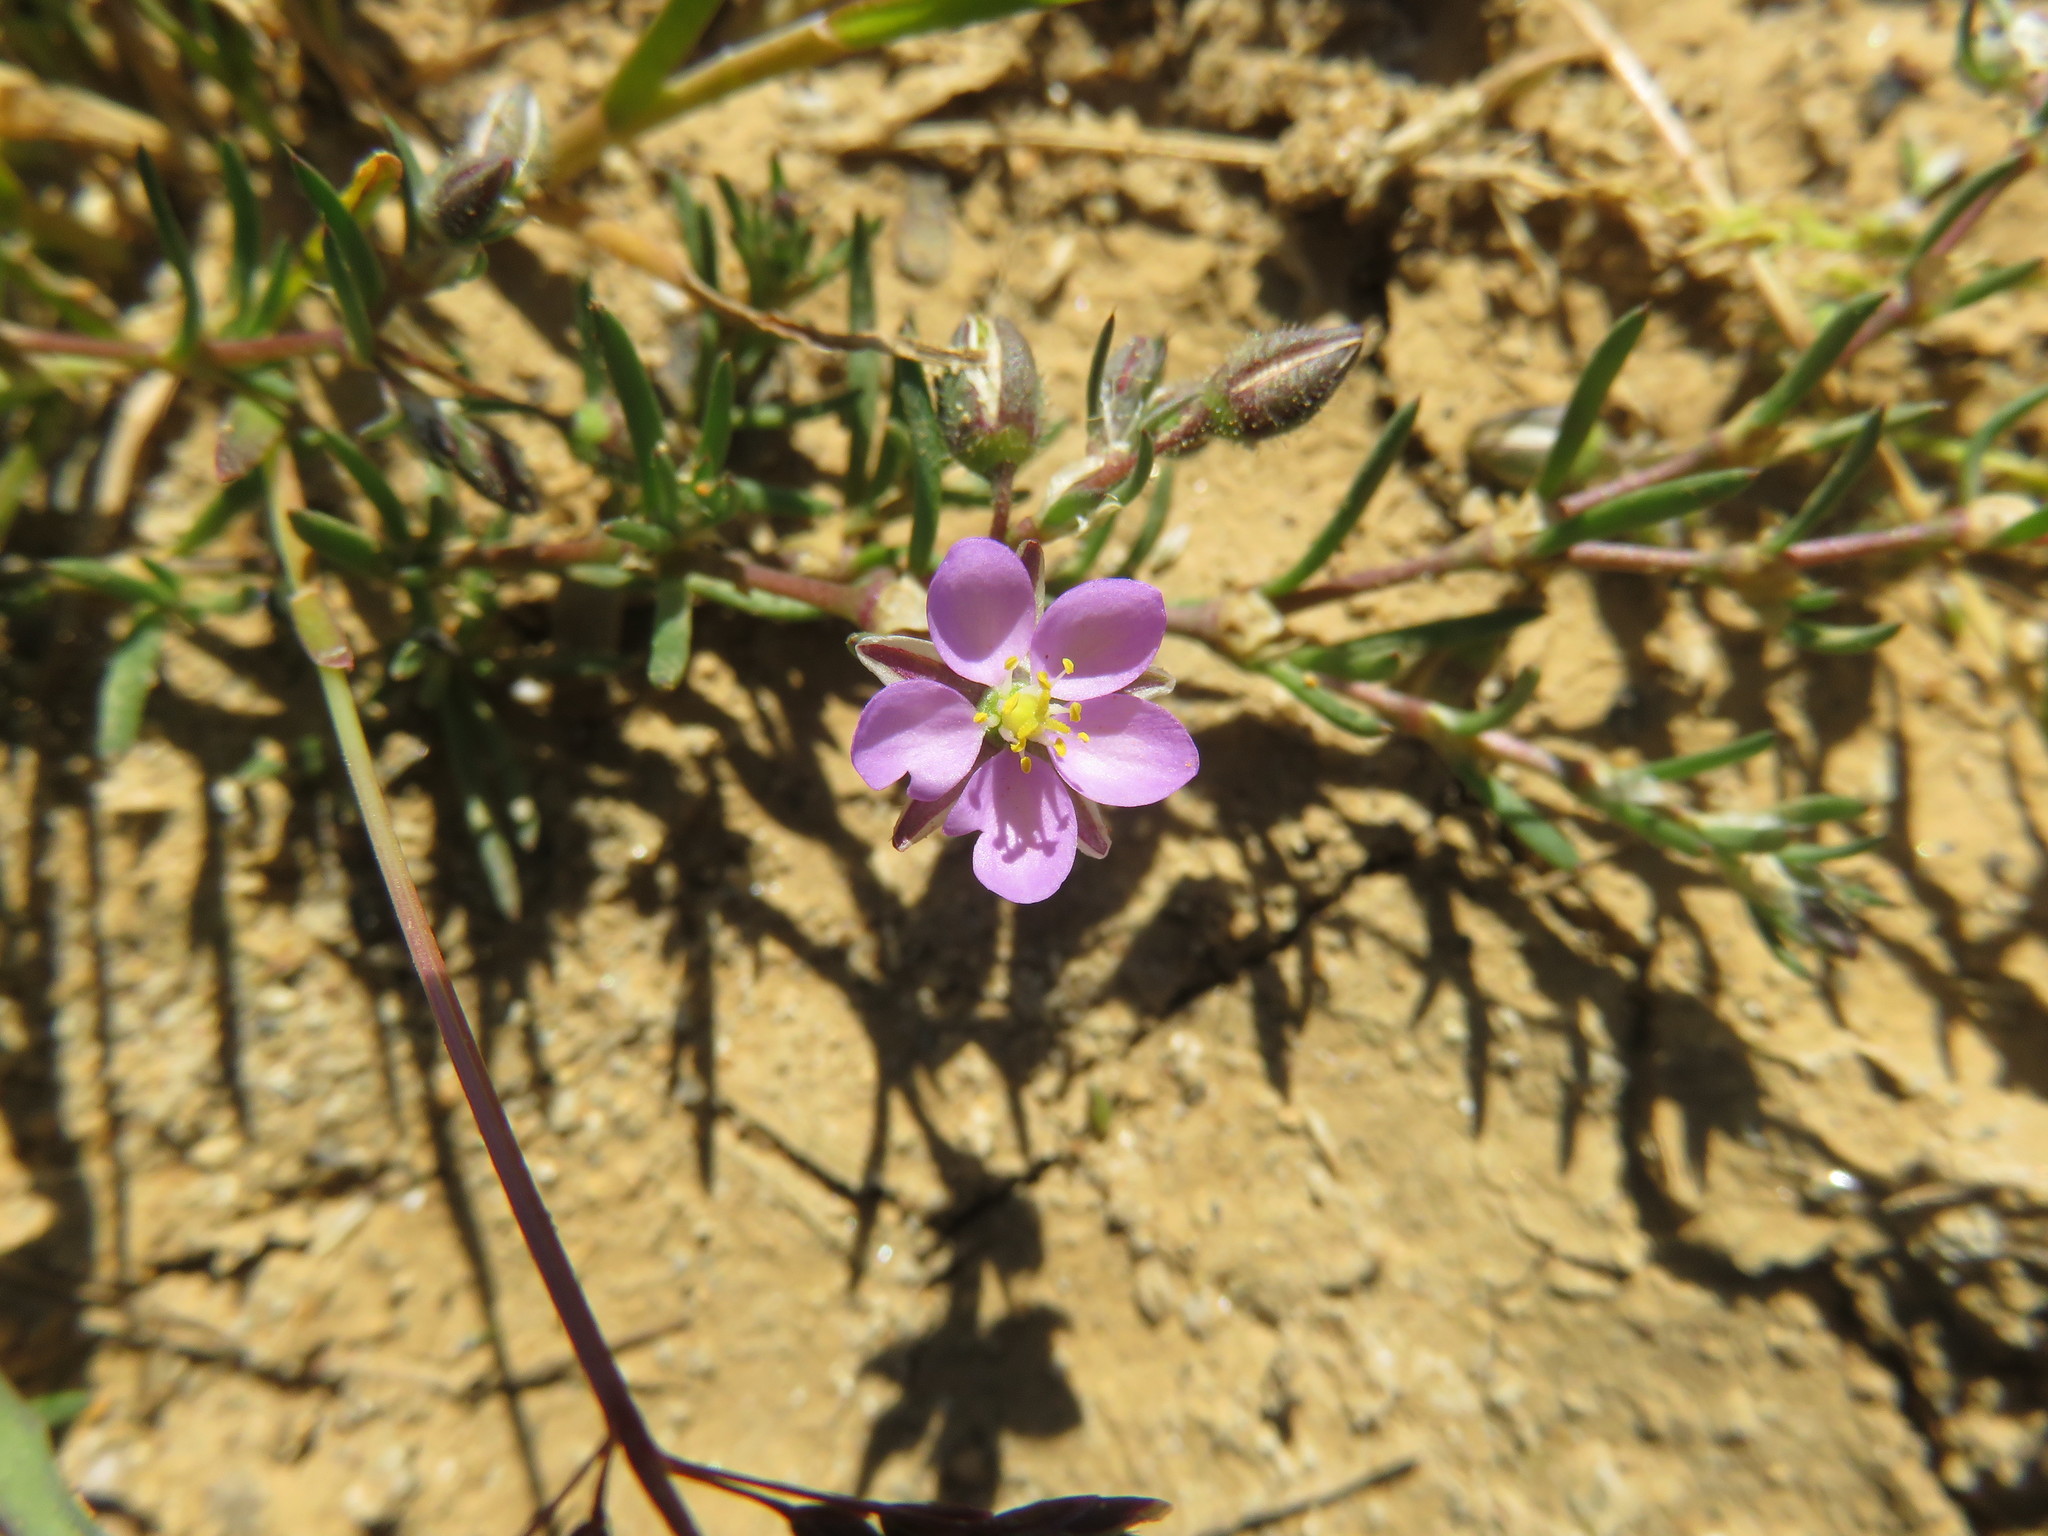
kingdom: Plantae
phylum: Tracheophyta
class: Magnoliopsida
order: Caryophyllales
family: Caryophyllaceae
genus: Spergularia
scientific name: Spergularia rubra
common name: Red sand-spurrey
